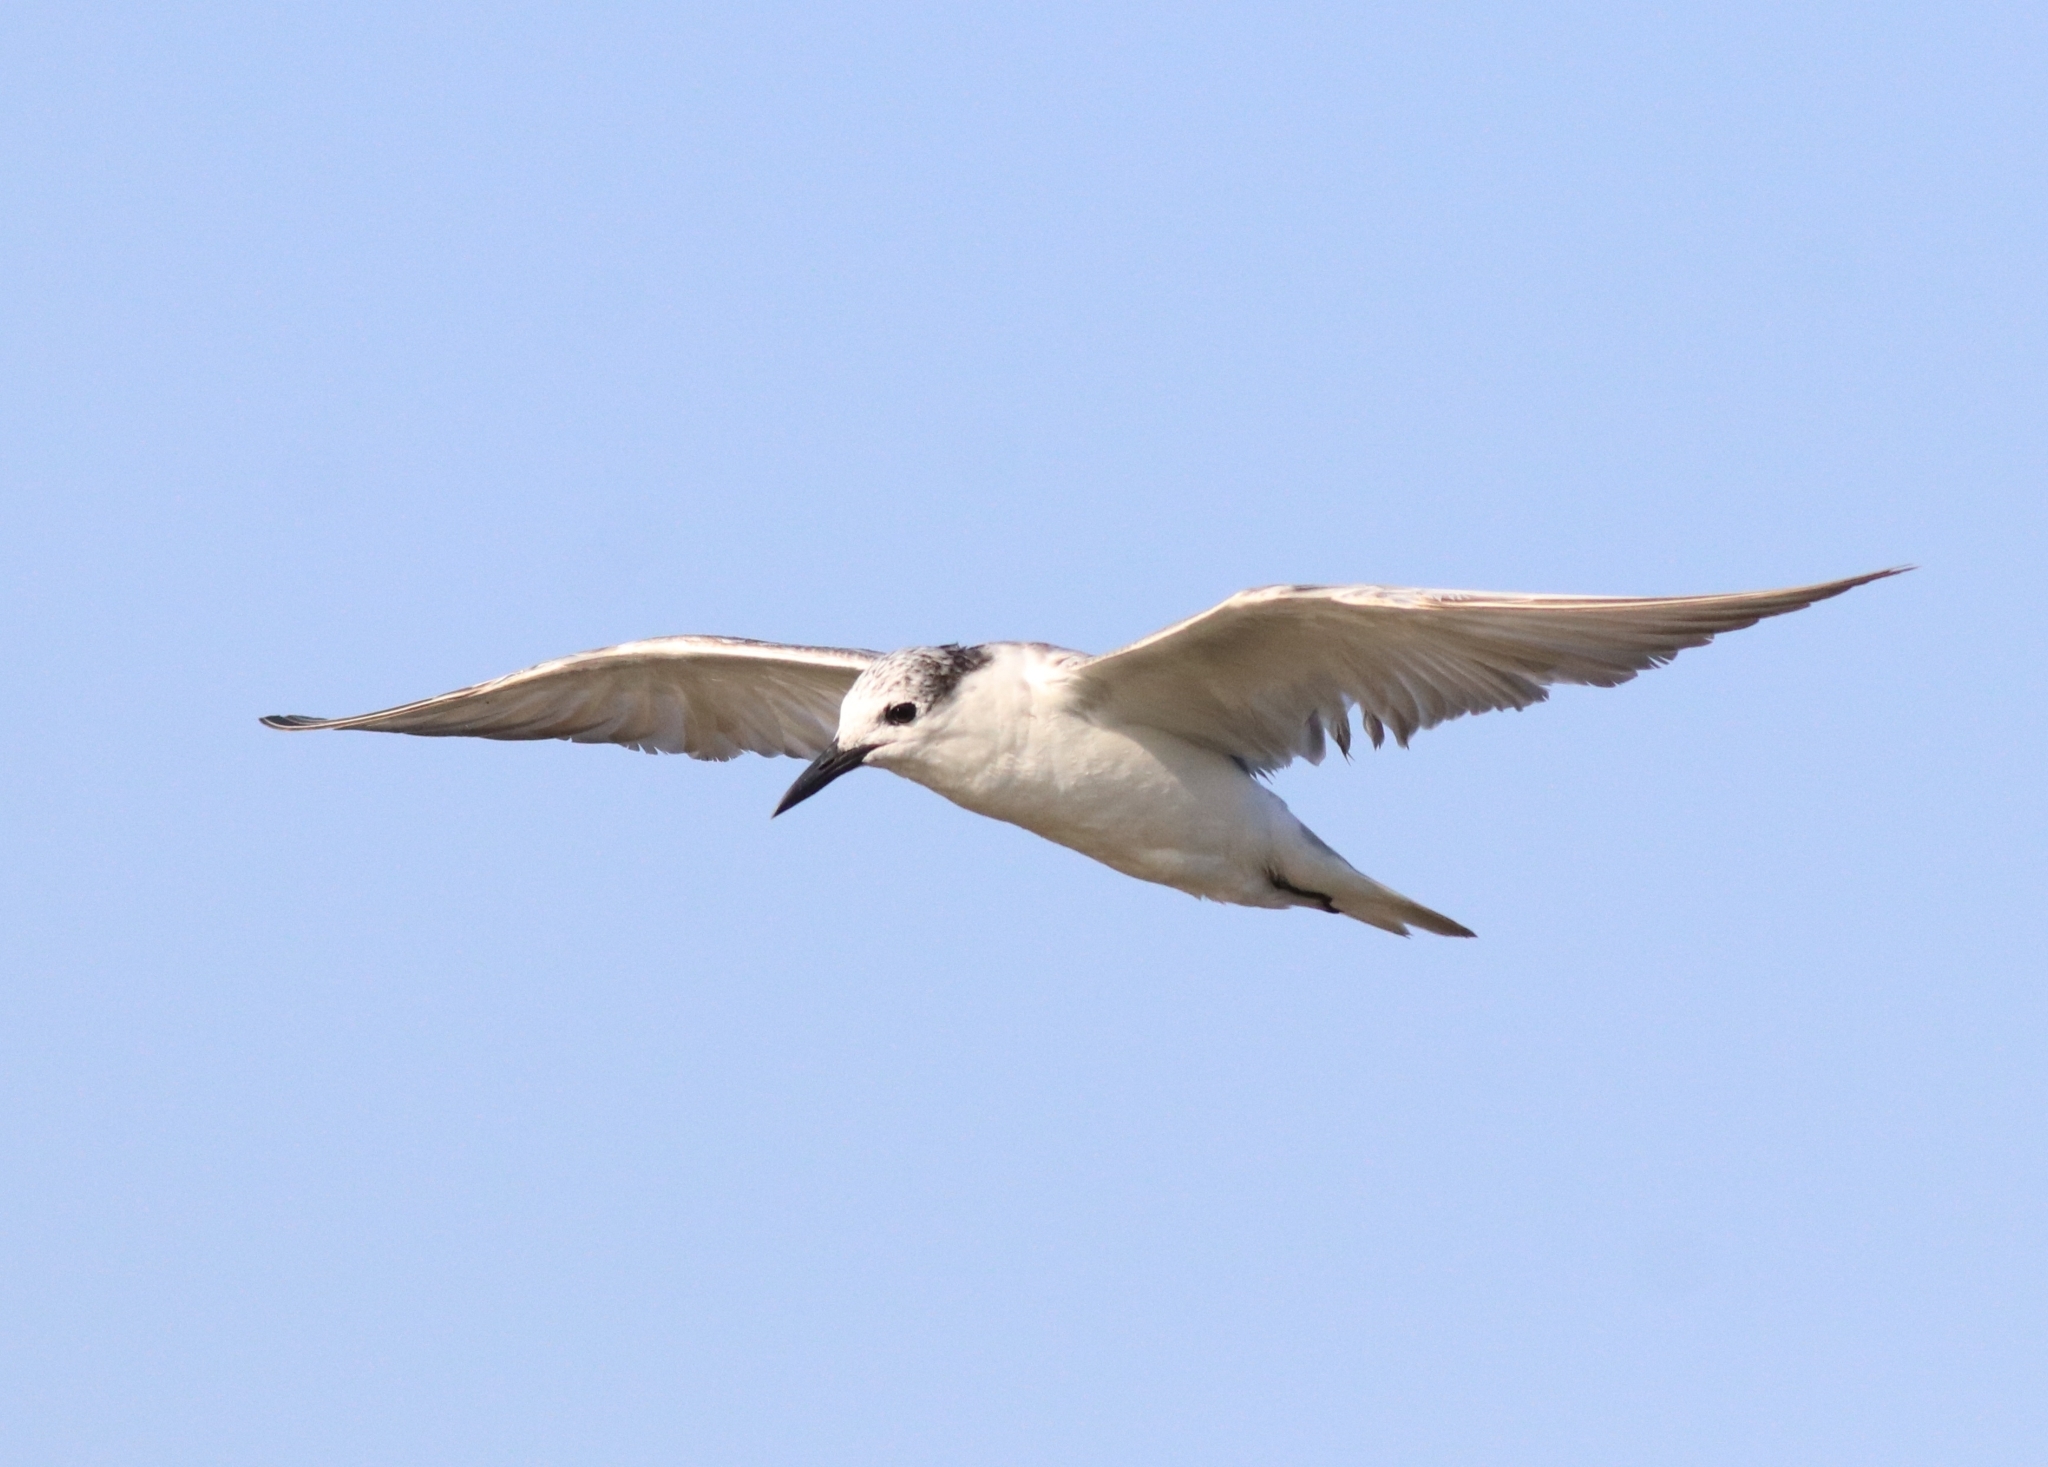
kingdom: Animalia
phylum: Chordata
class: Aves
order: Charadriiformes
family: Laridae
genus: Chlidonias
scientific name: Chlidonias hybrida
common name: Whiskered tern
